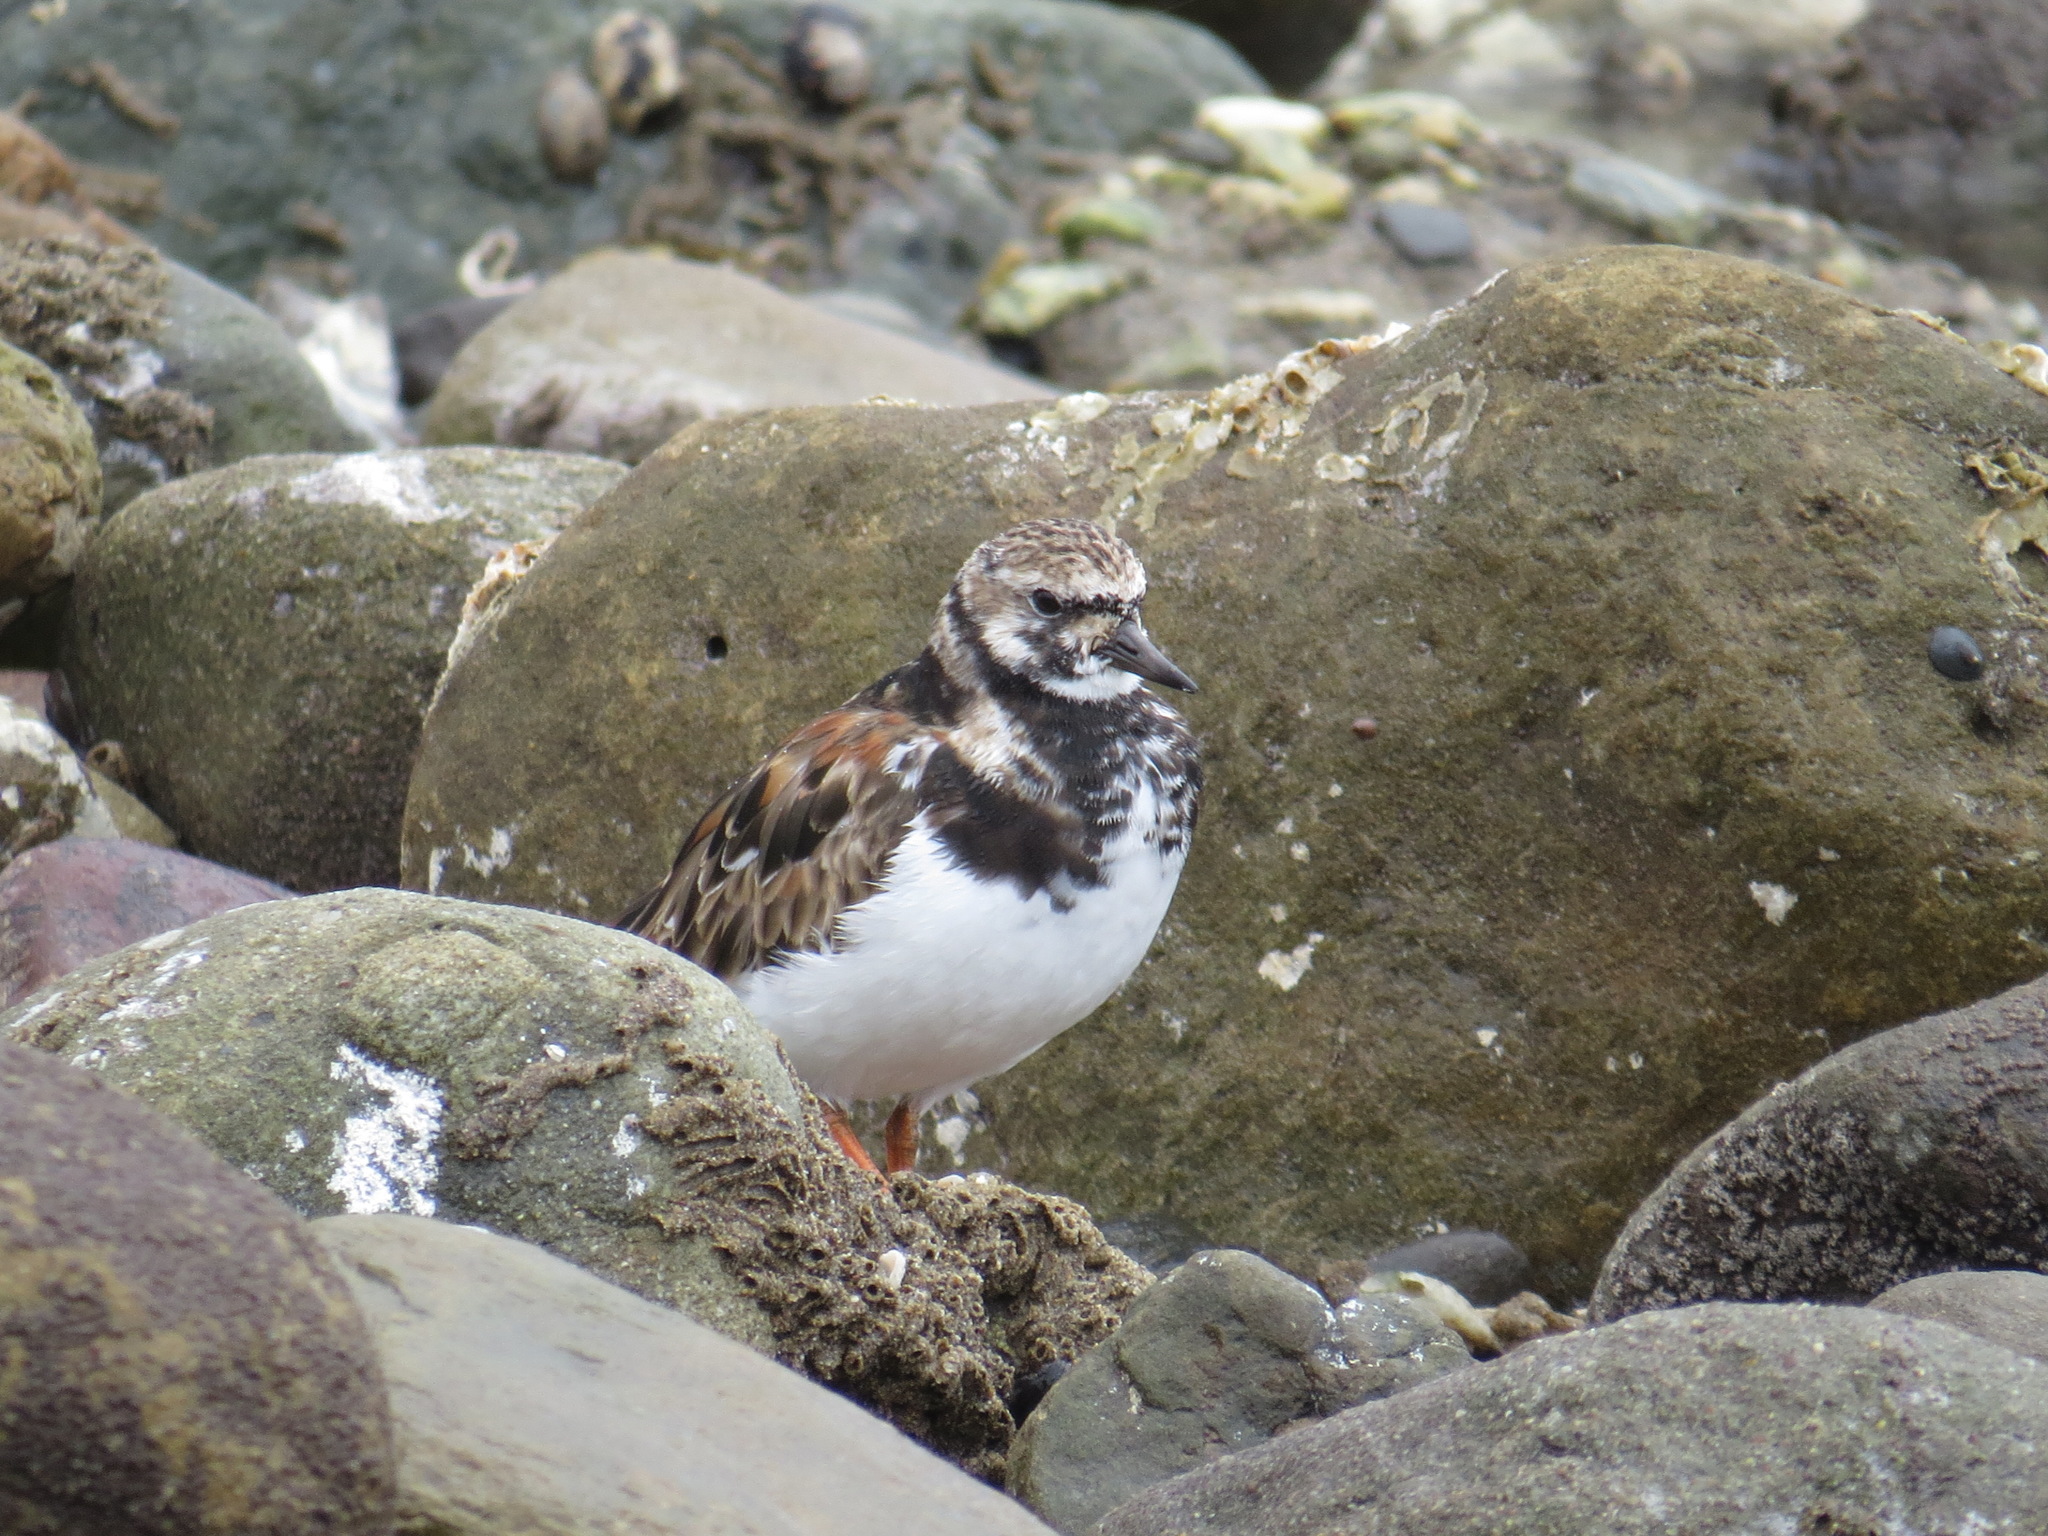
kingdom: Animalia
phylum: Chordata
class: Aves
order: Charadriiformes
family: Scolopacidae
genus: Arenaria
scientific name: Arenaria interpres
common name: Ruddy turnstone
